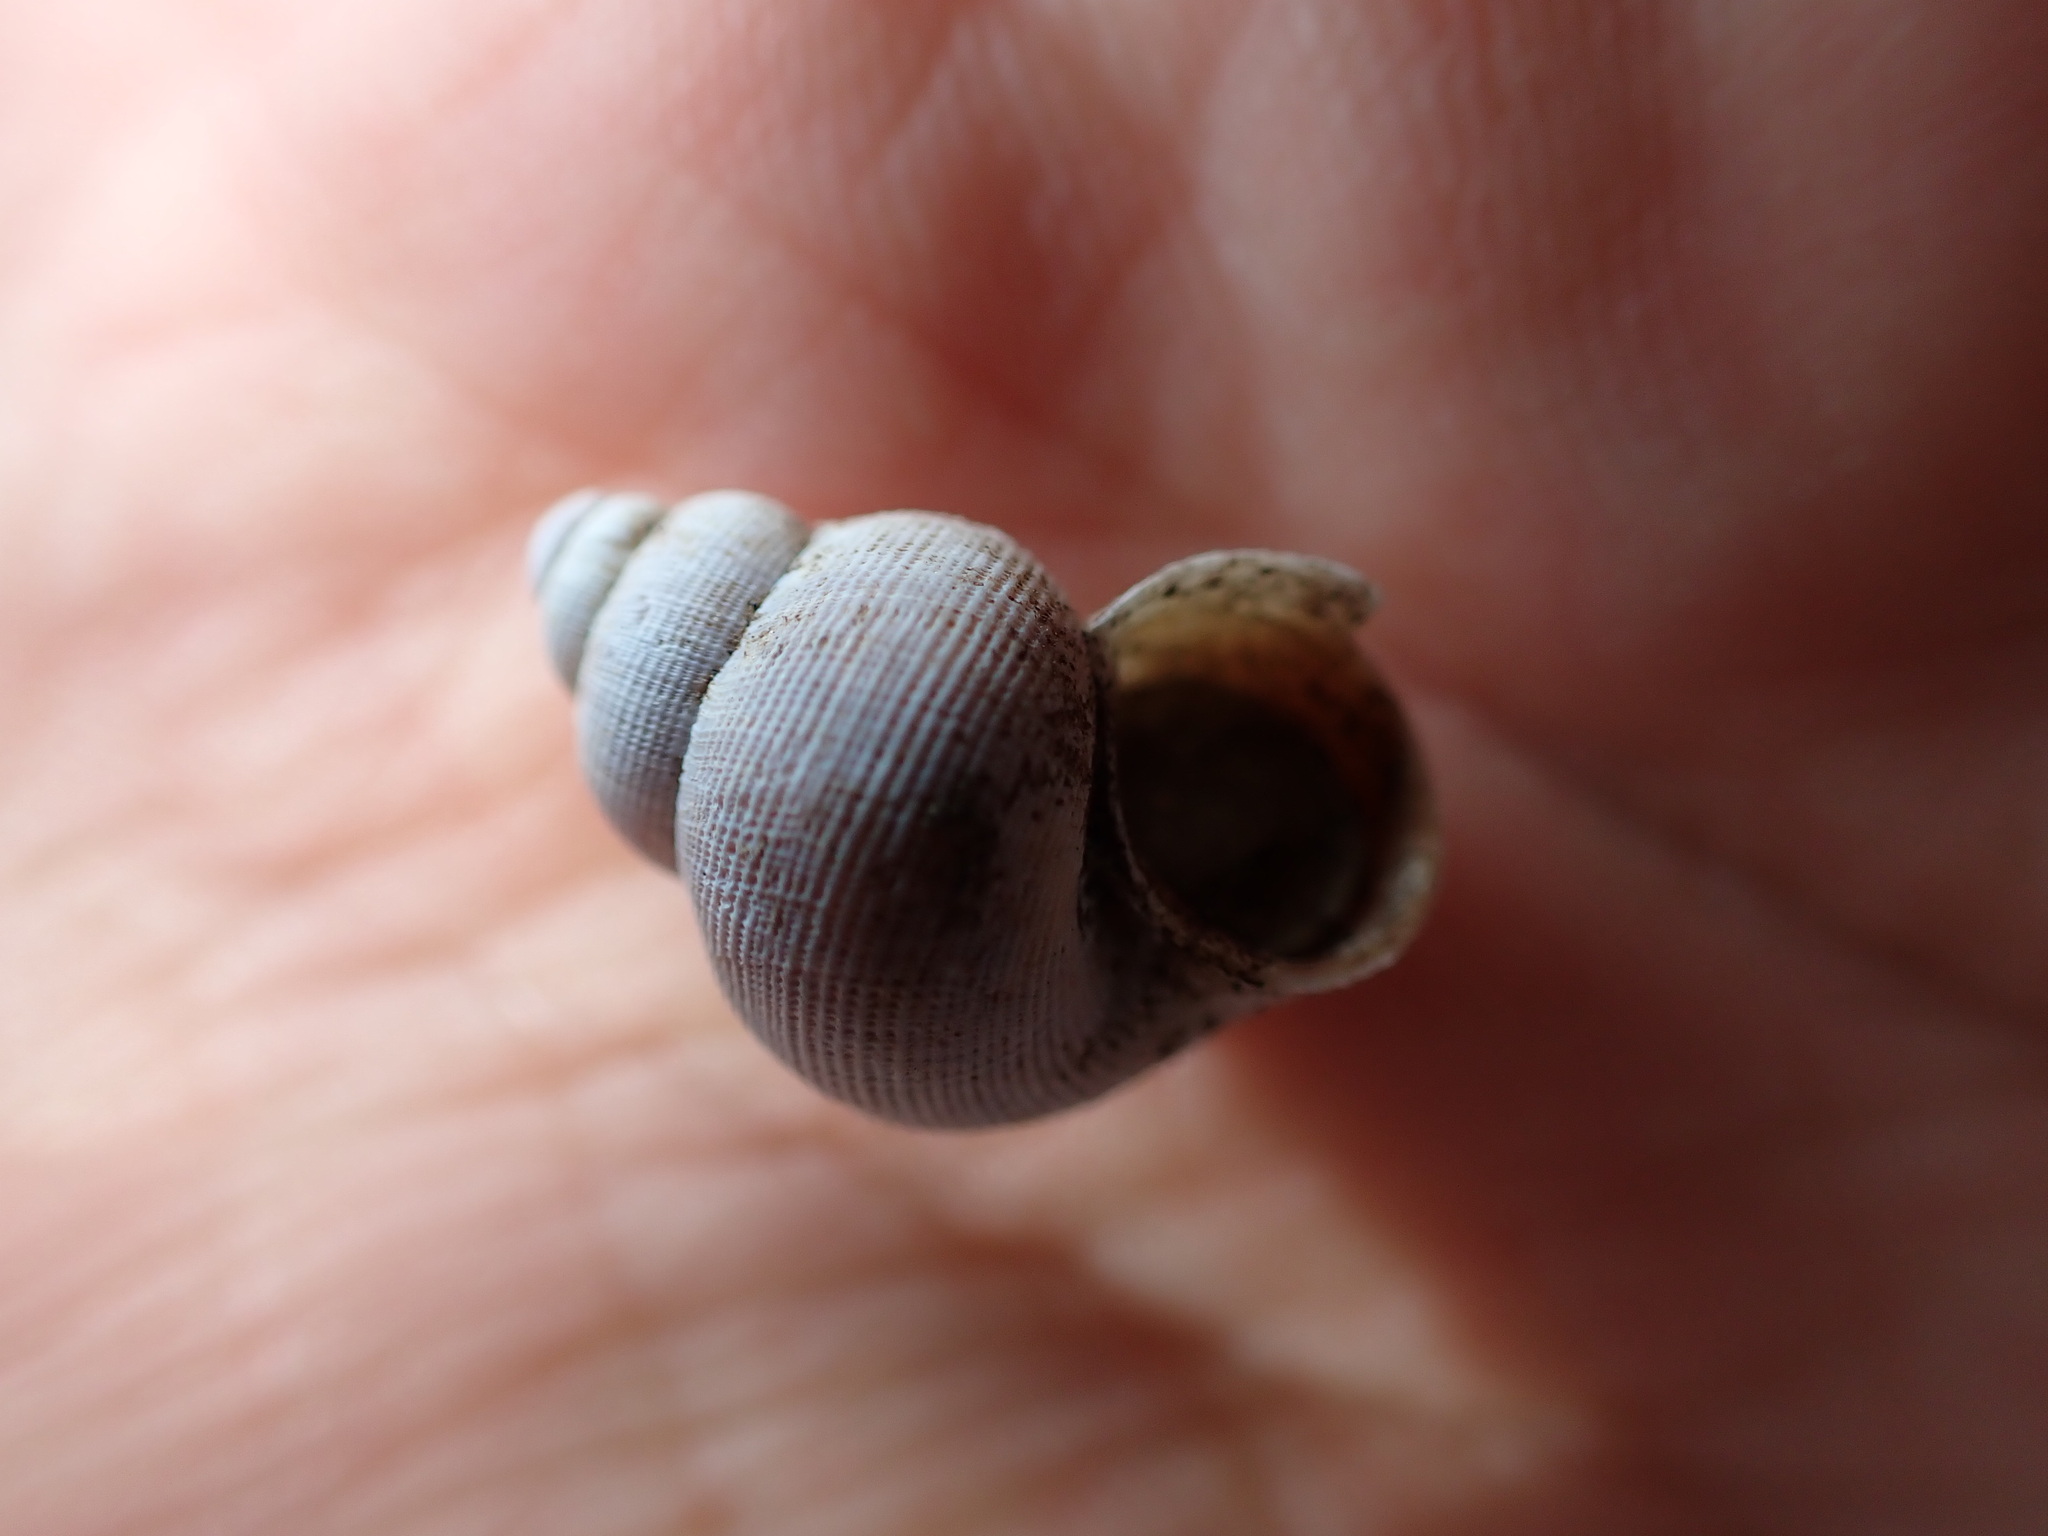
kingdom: Animalia
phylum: Mollusca
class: Gastropoda
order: Littorinimorpha
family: Pomatiidae
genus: Pomatias
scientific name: Pomatias elegans
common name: Red-mouthed snail
